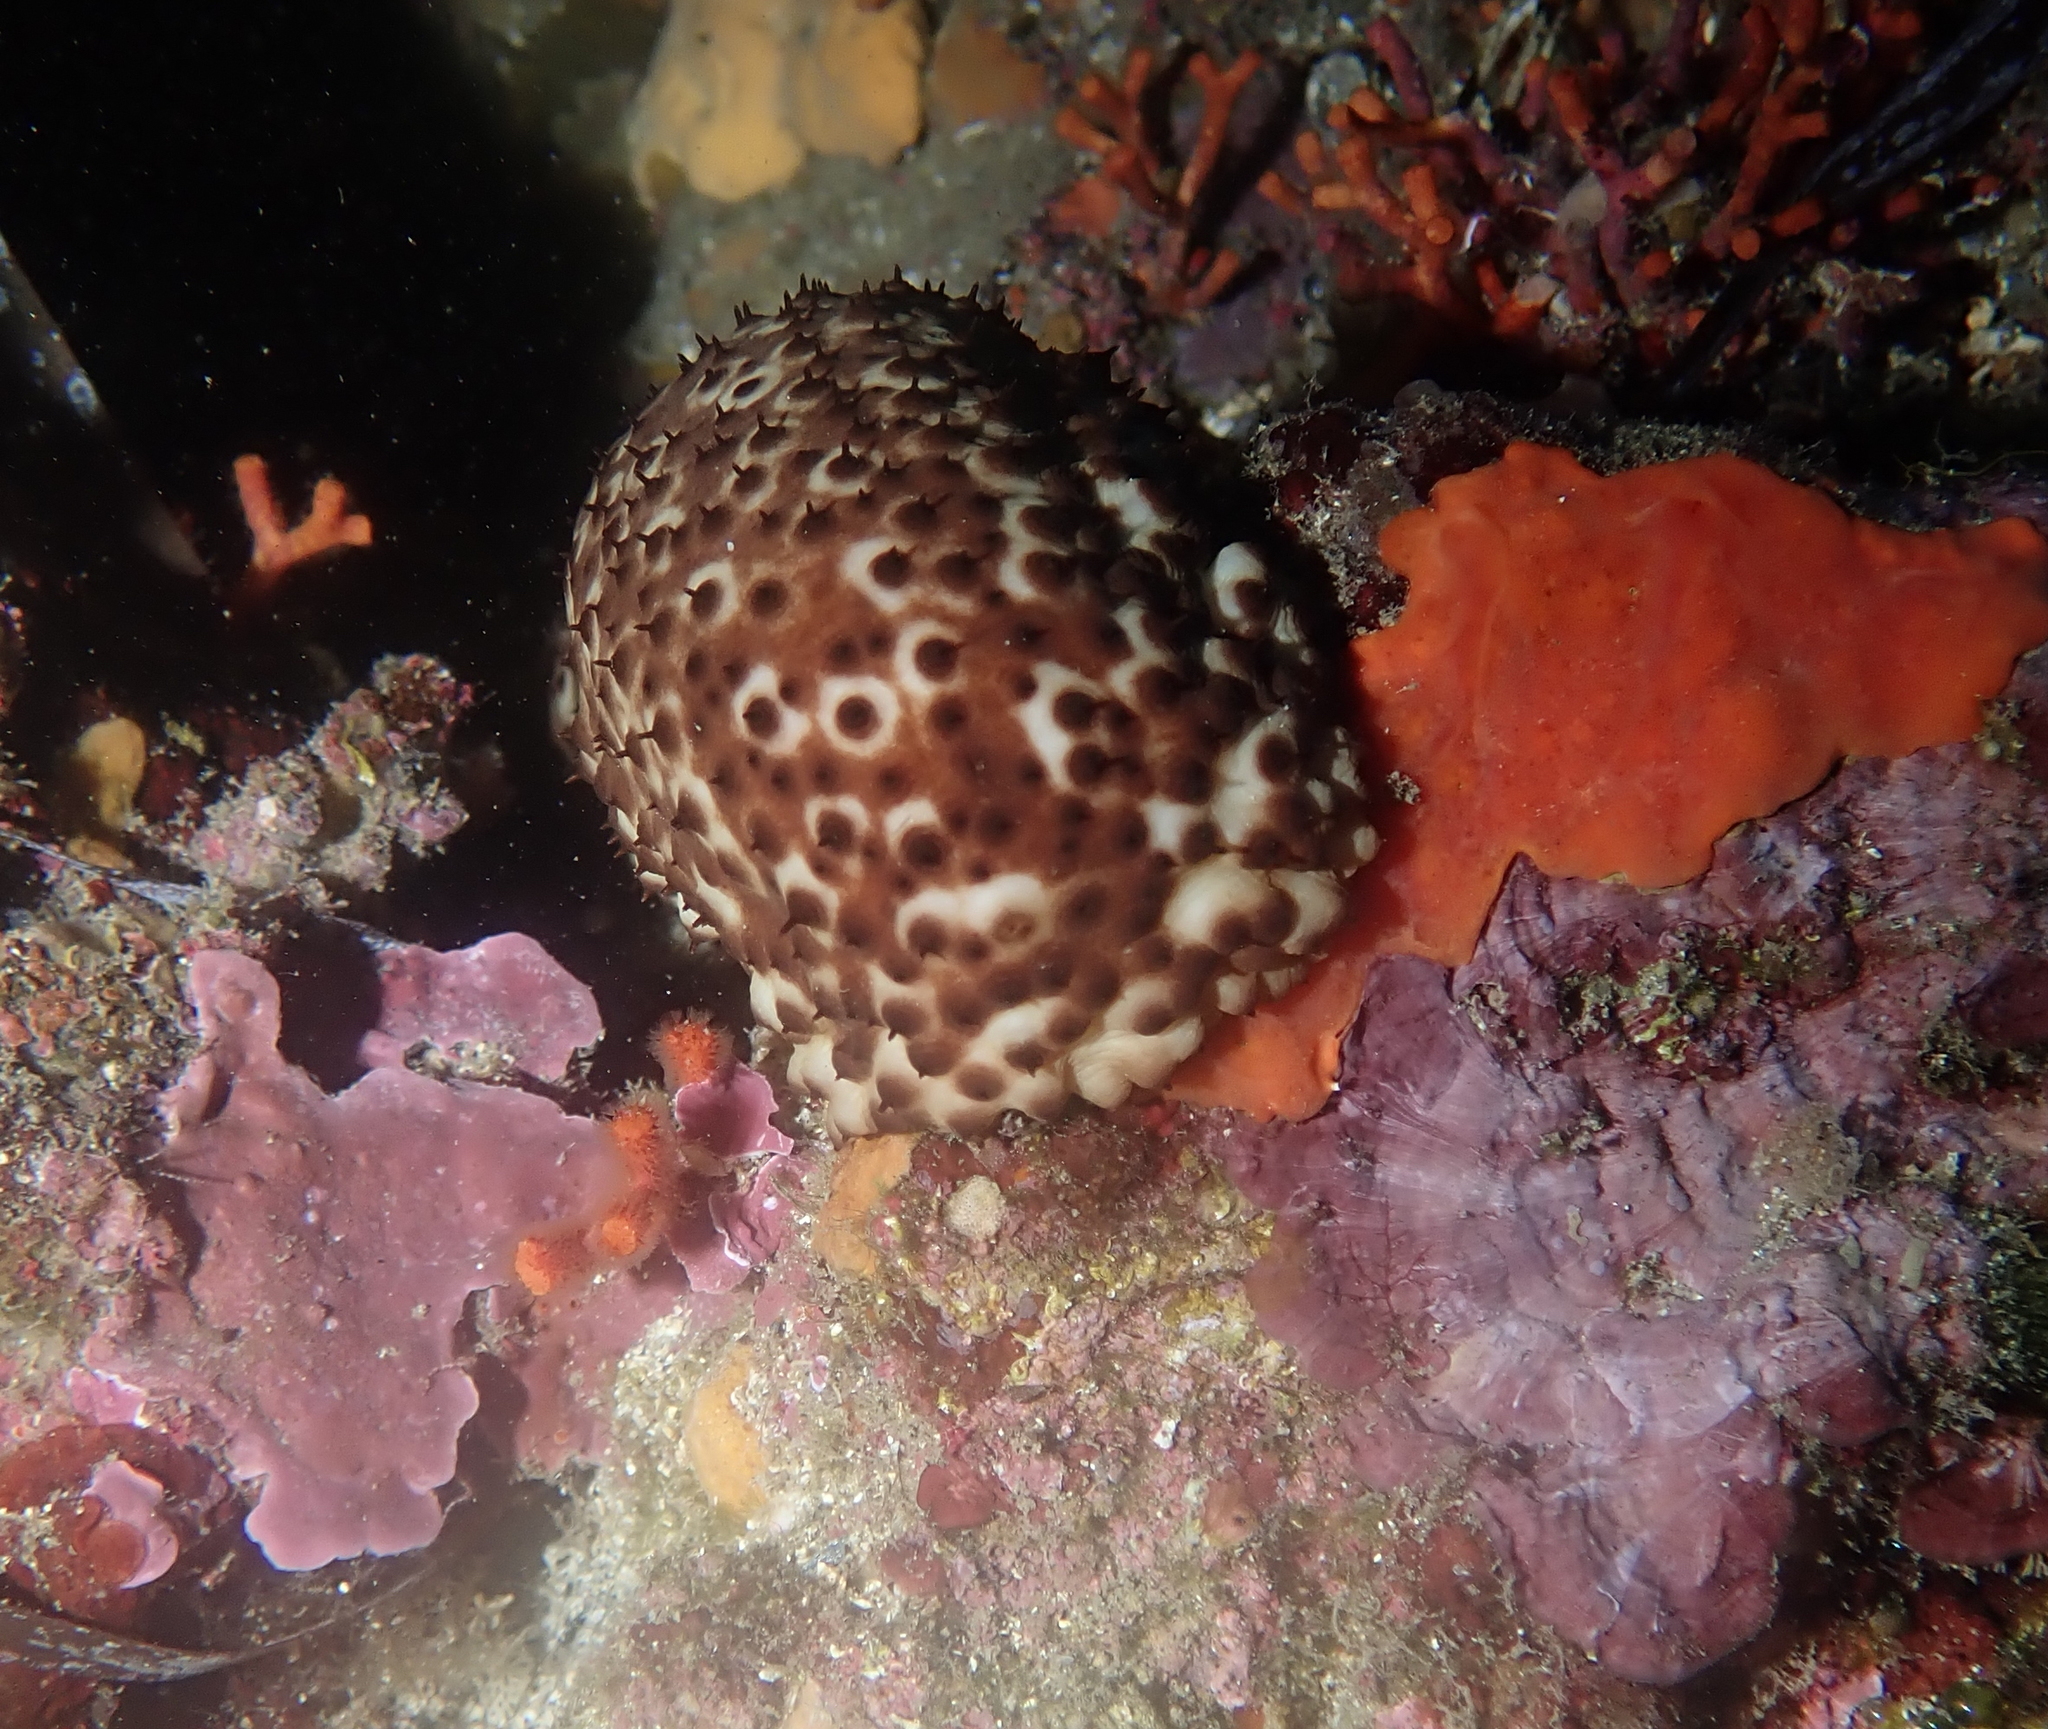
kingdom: Animalia
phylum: Echinodermata
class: Holothuroidea
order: Holothuriida
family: Holothuriidae
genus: Holothuria
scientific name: Holothuria sanctori
